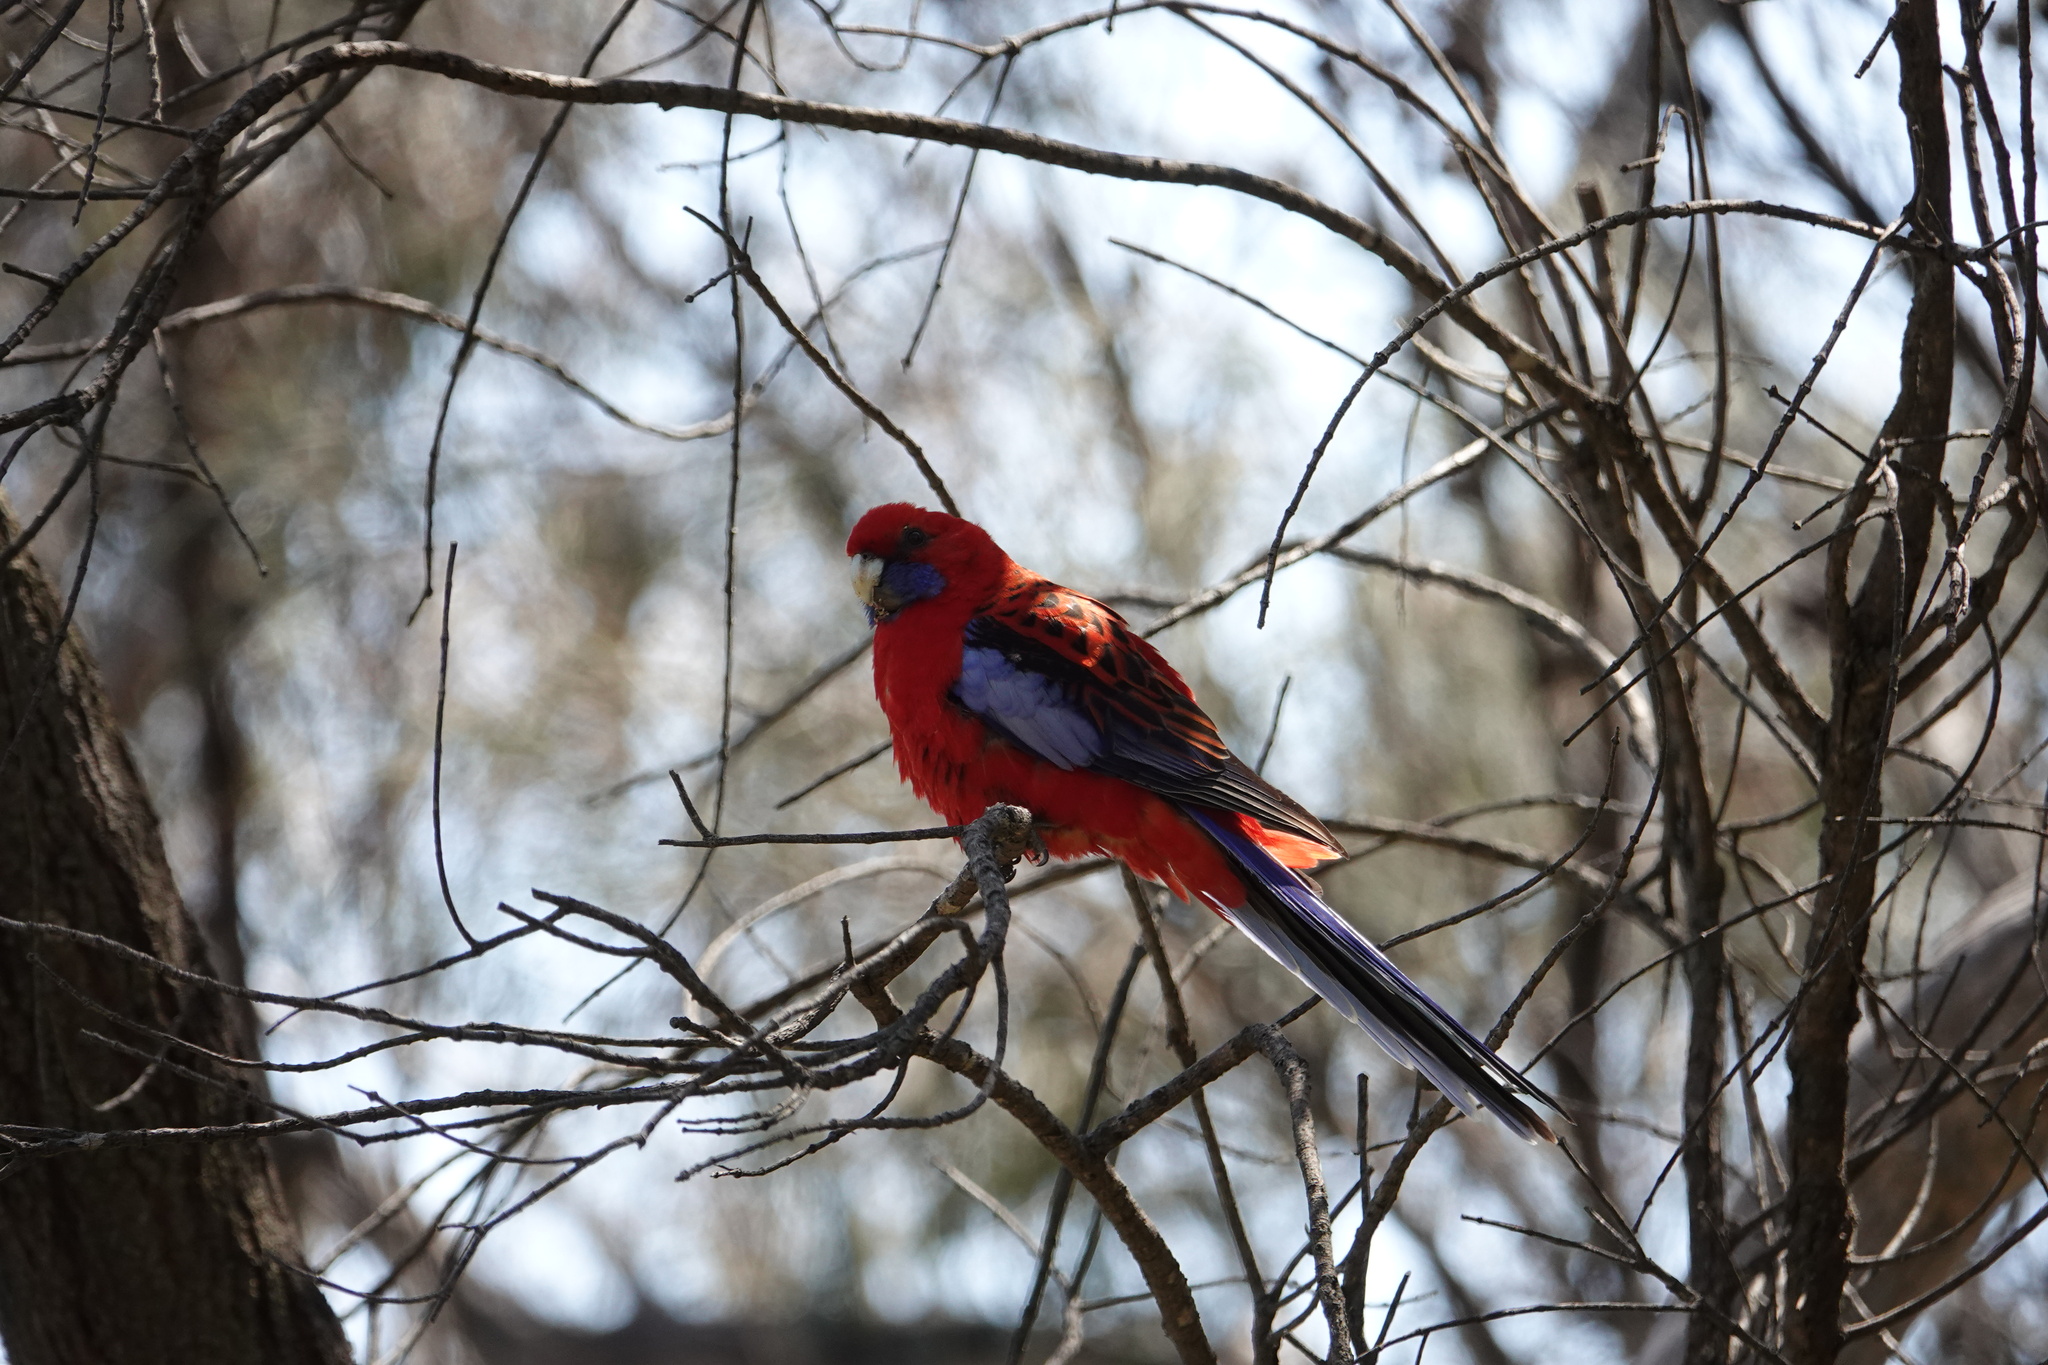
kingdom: Animalia
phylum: Chordata
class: Aves
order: Psittaciformes
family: Psittacidae
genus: Platycercus
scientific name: Platycercus elegans
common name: Crimson rosella
